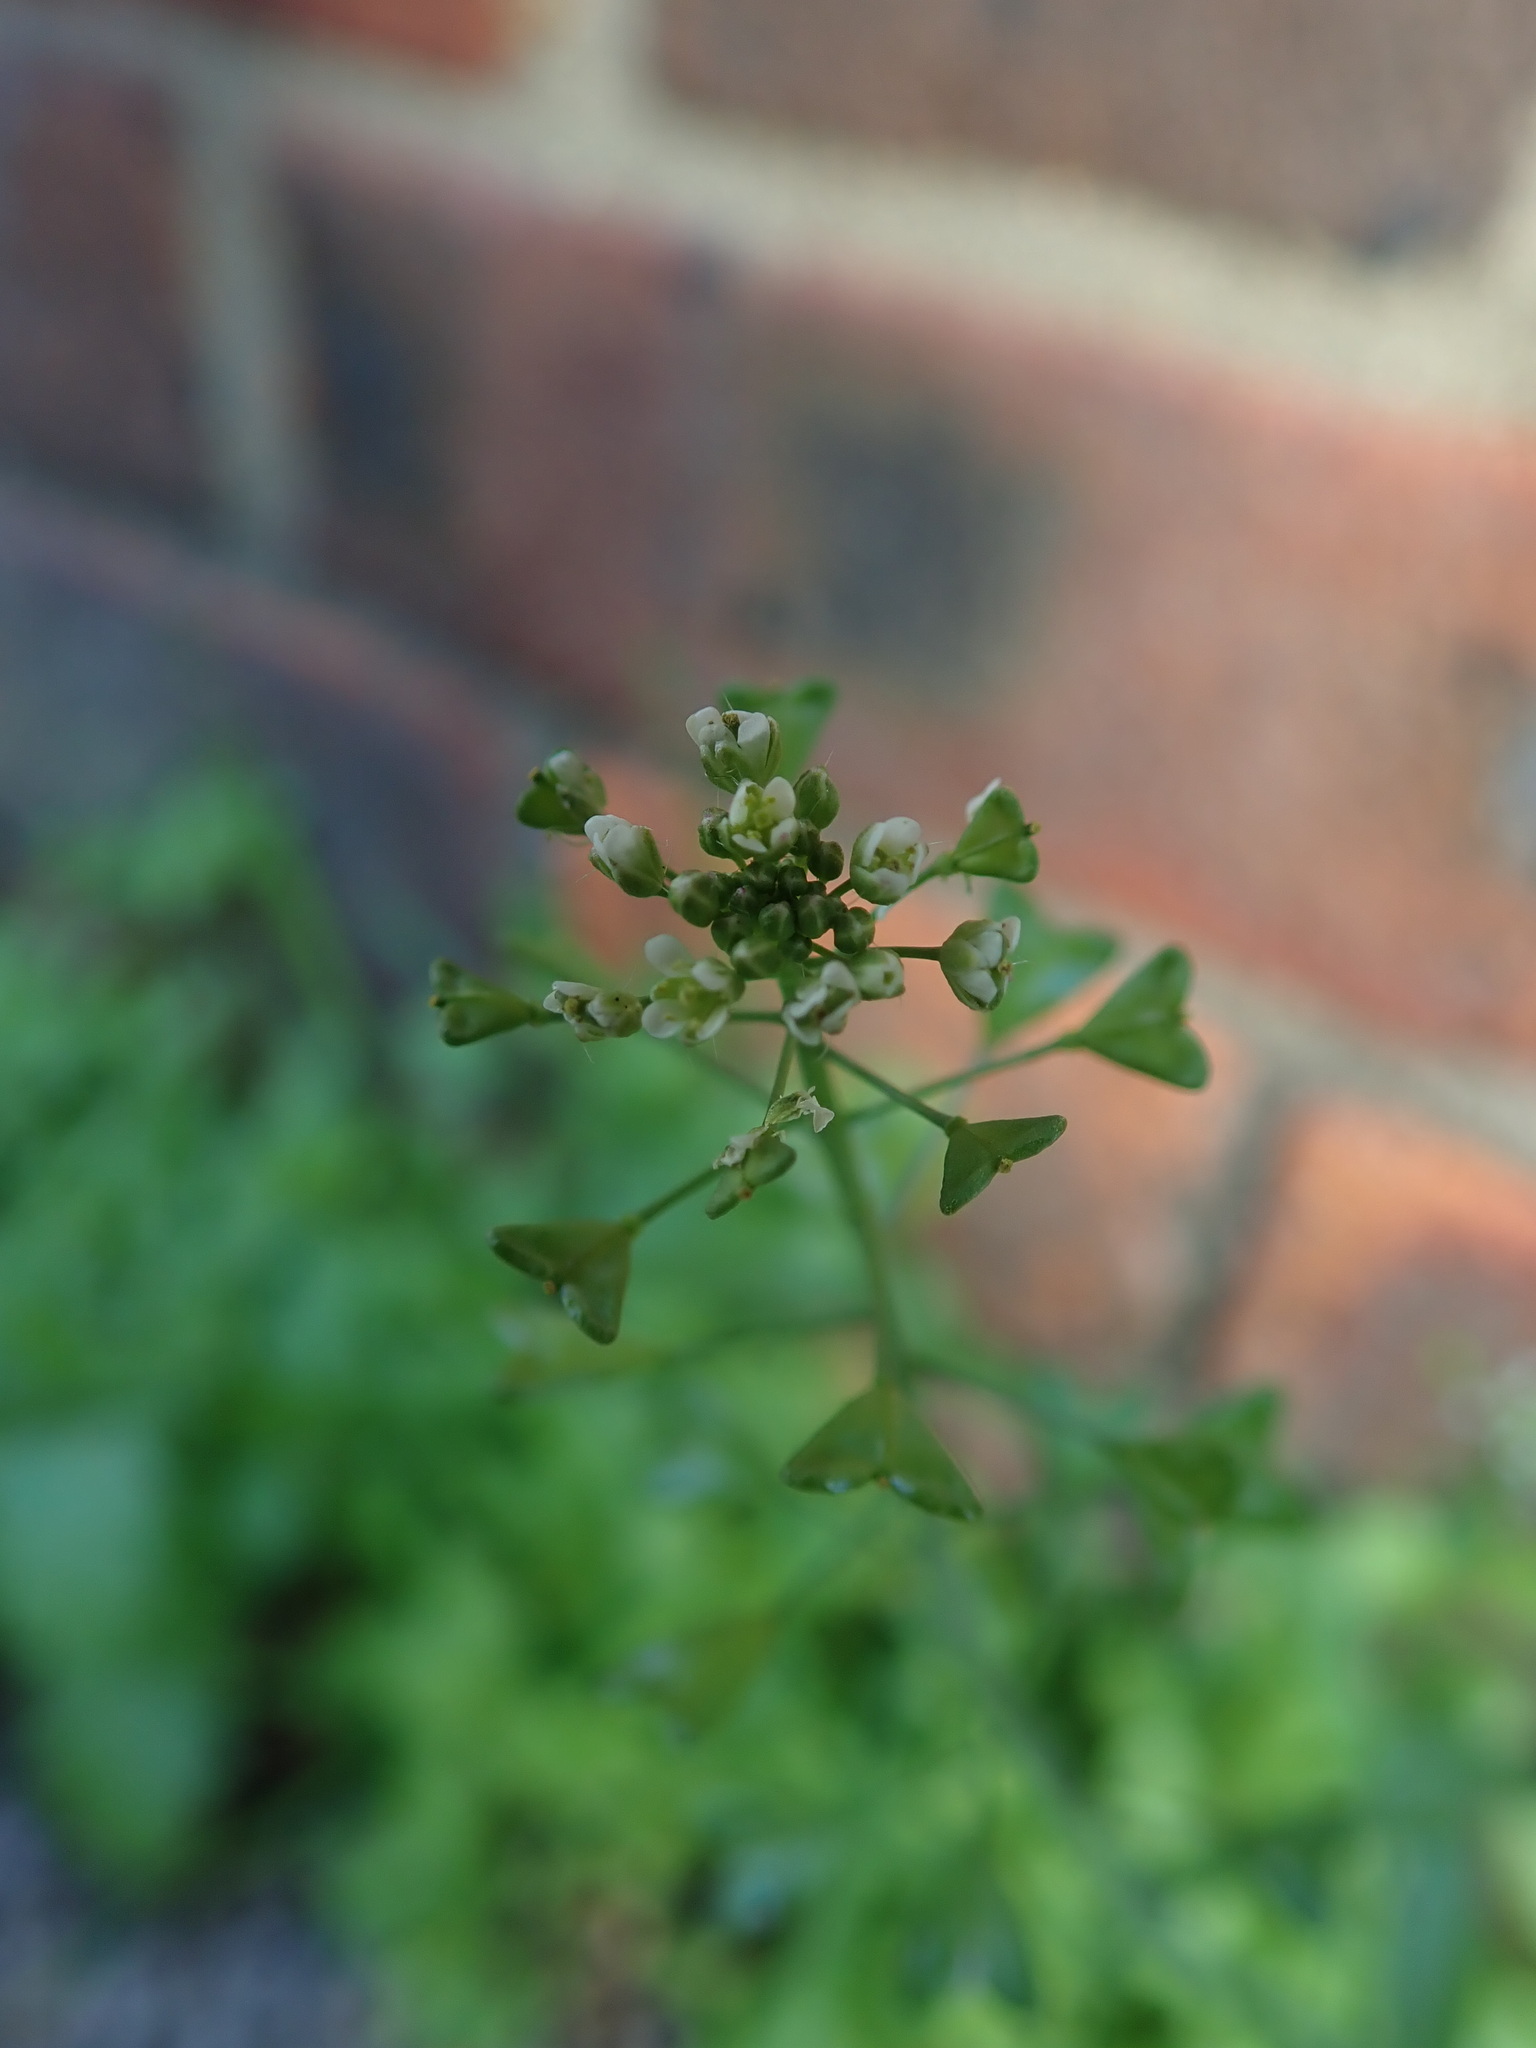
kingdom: Plantae
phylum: Tracheophyta
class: Magnoliopsida
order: Brassicales
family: Brassicaceae
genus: Capsella
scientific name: Capsella bursa-pastoris
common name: Shepherd's purse
